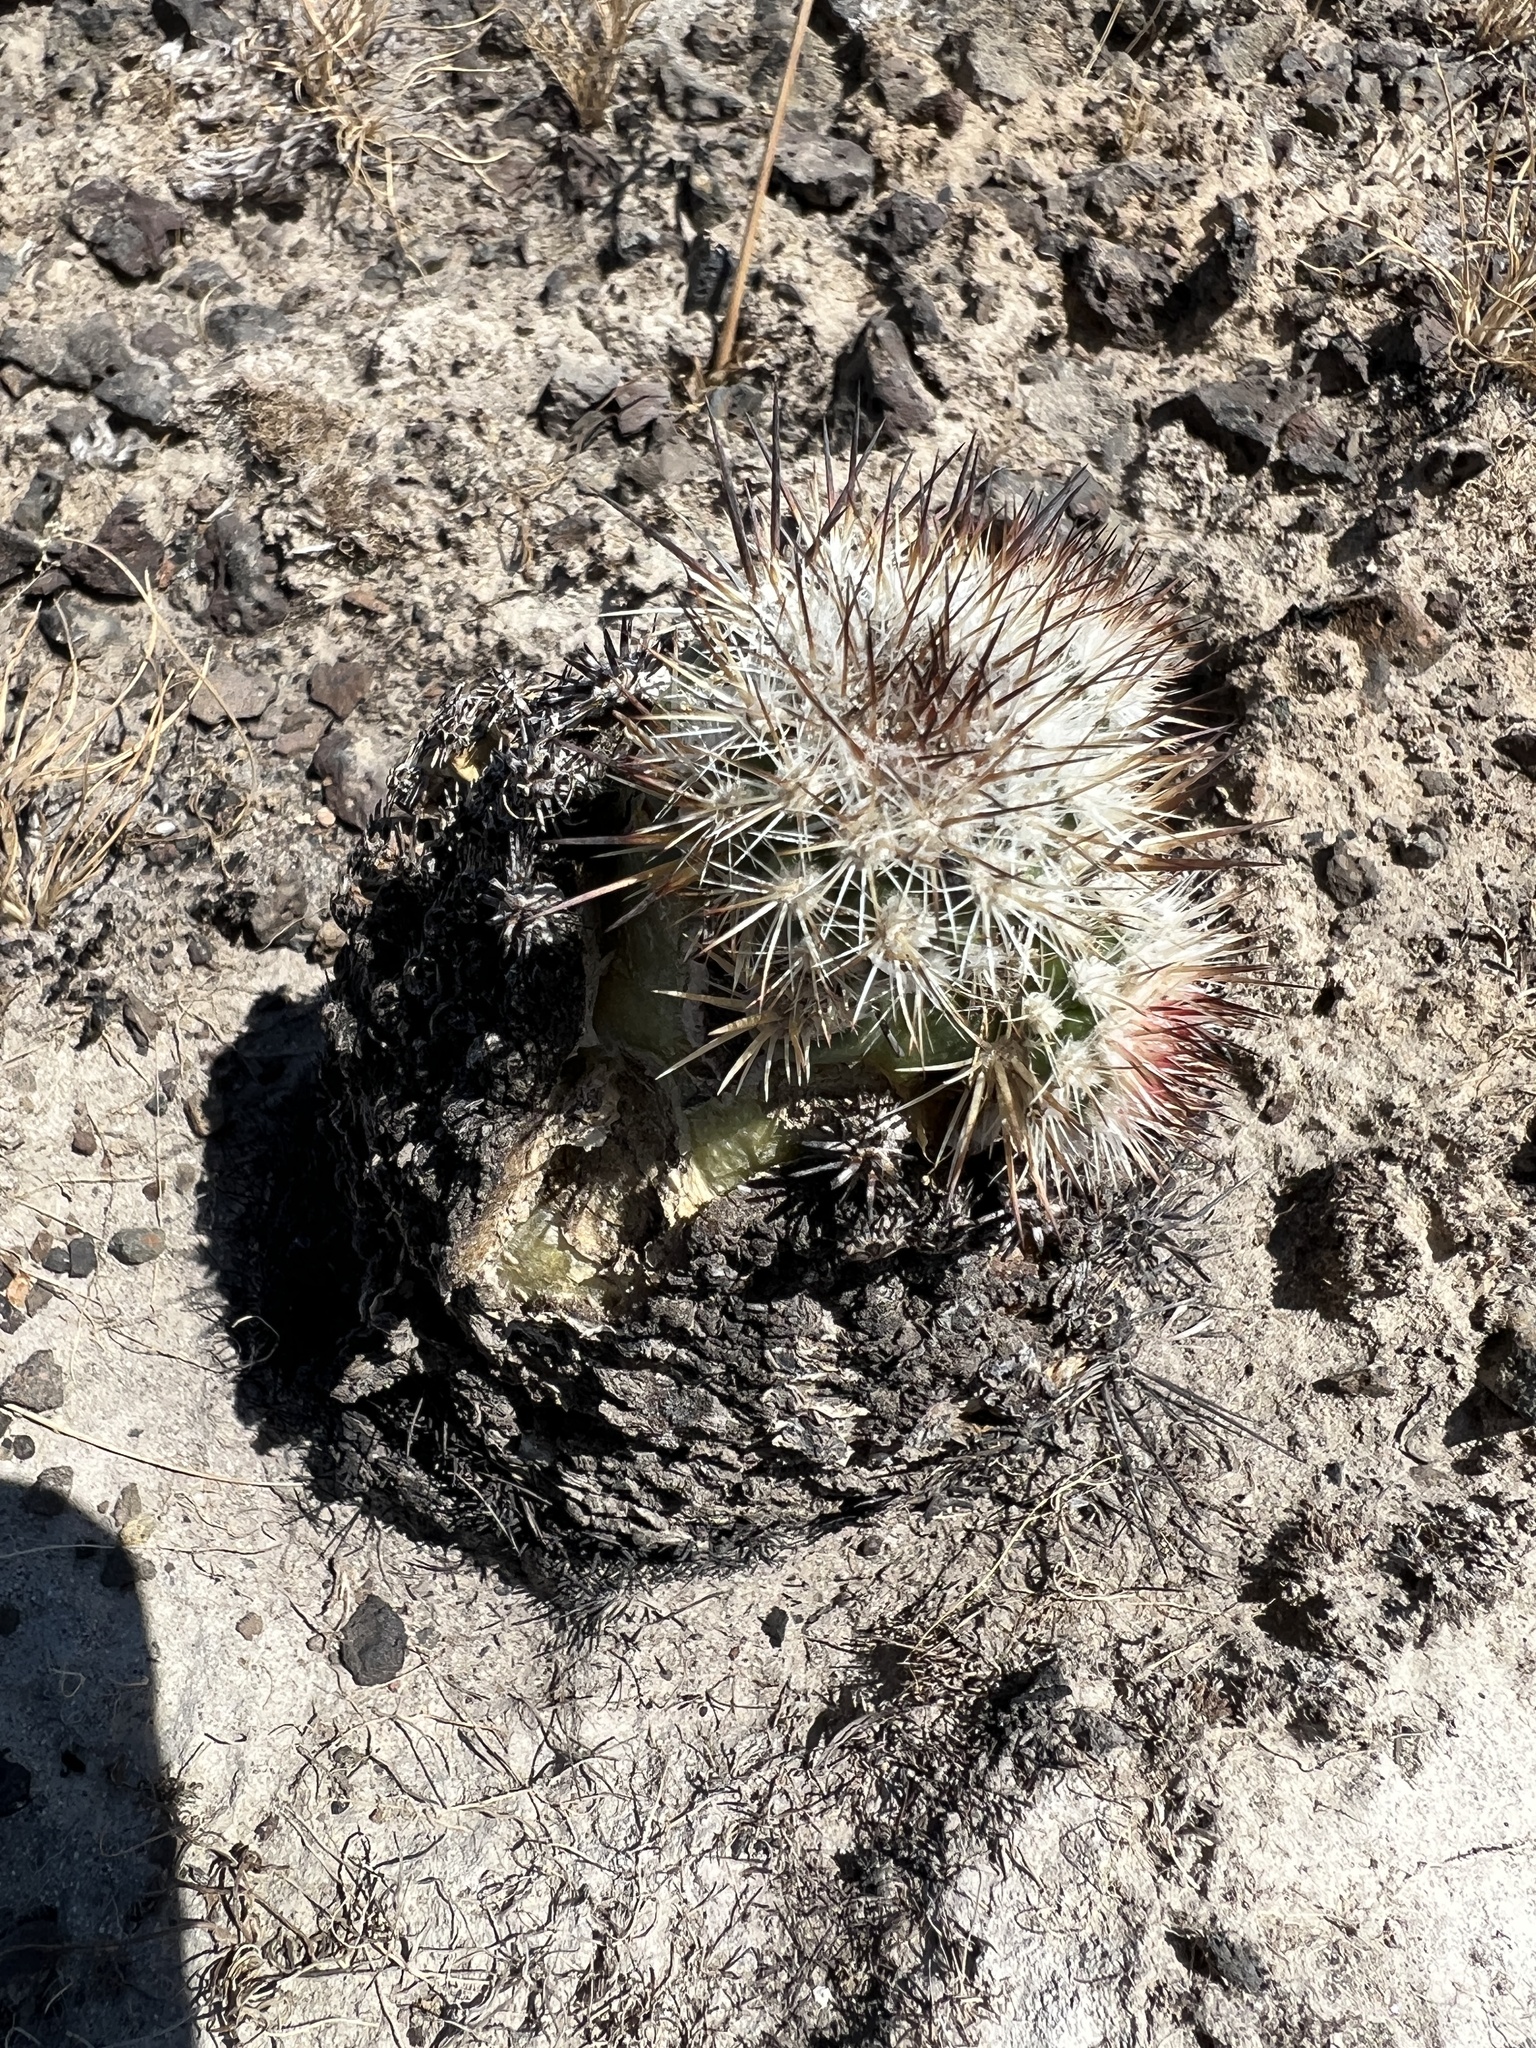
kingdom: Plantae
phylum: Tracheophyta
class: Magnoliopsida
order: Caryophyllales
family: Cactaceae
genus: Pediocactus
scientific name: Pediocactus nigrispinus
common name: Simpson's hedgehog cactus
